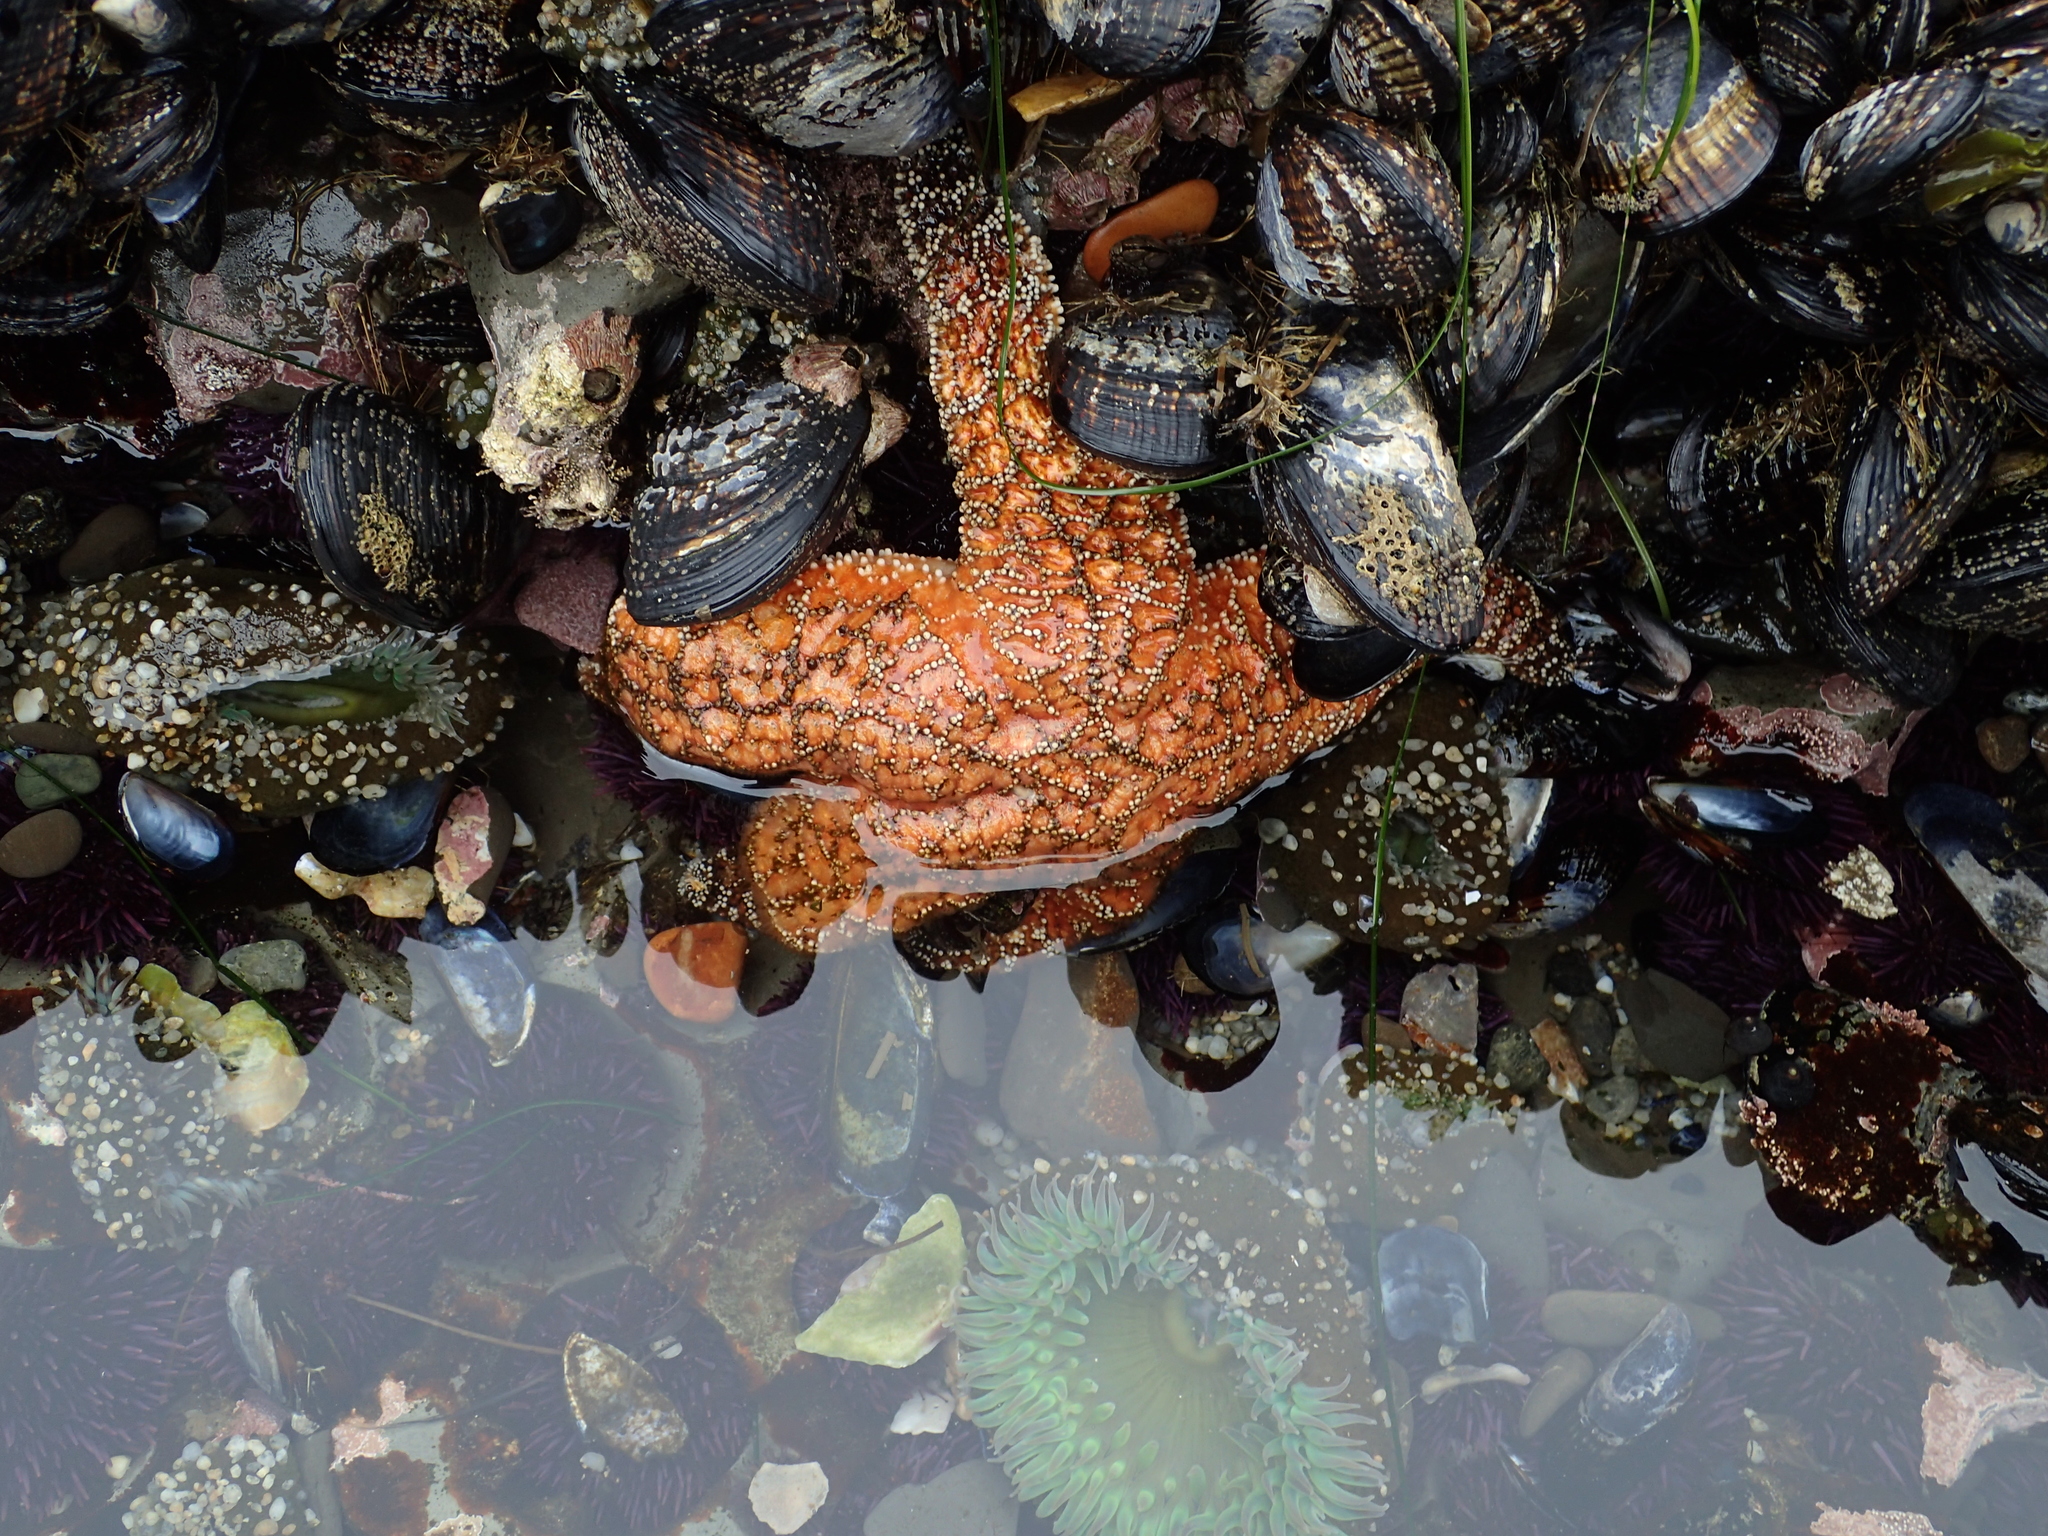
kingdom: Animalia
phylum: Echinodermata
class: Asteroidea
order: Forcipulatida
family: Asteriidae
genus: Pisaster
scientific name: Pisaster ochraceus
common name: Ochre stars
